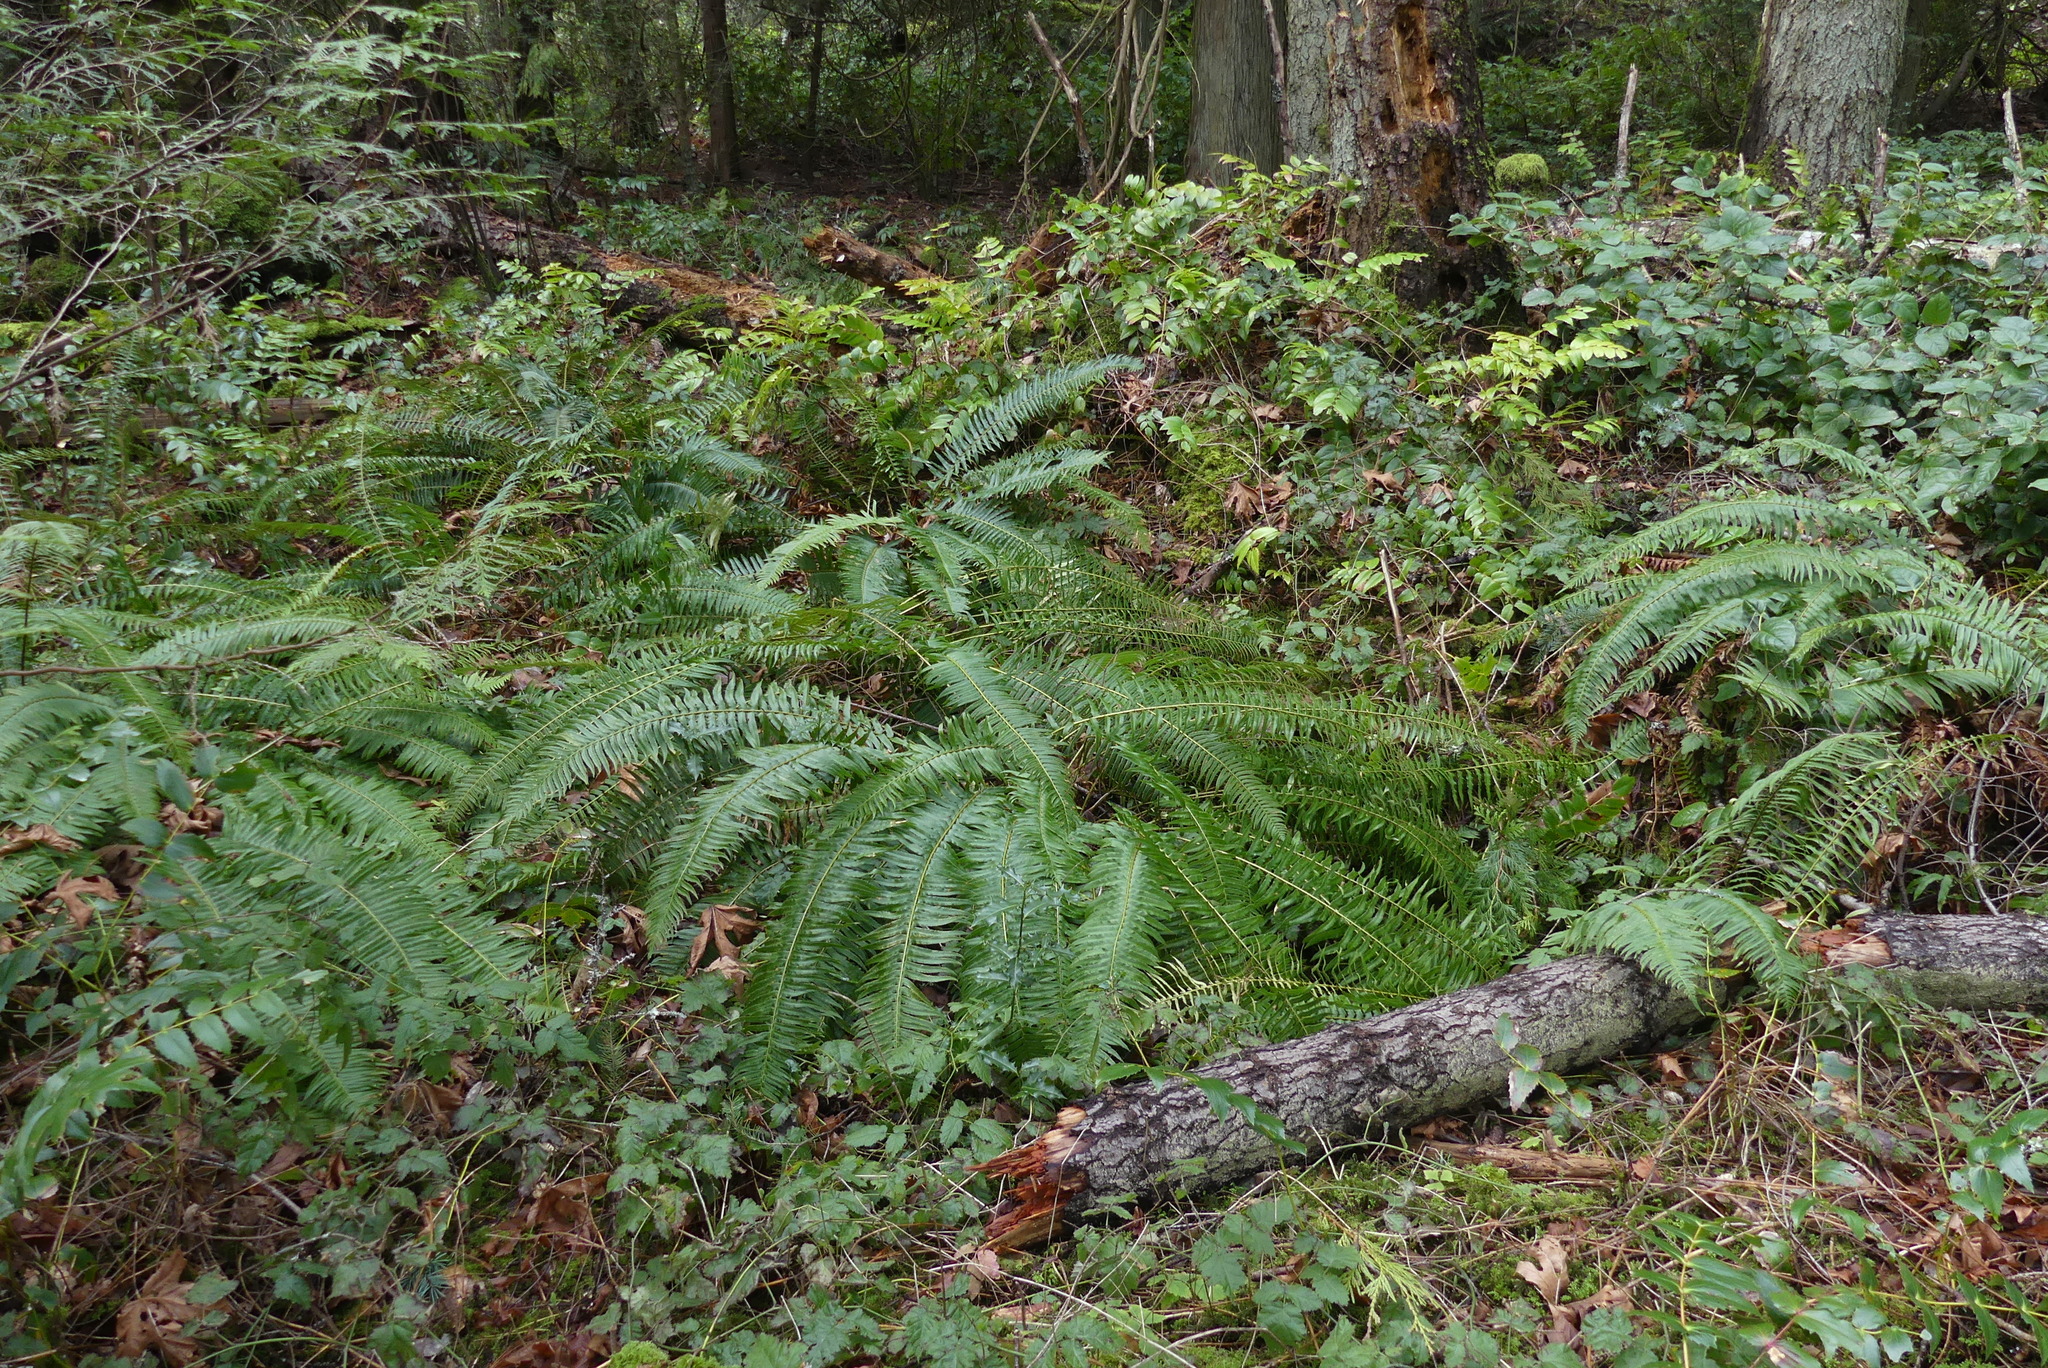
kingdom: Plantae
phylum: Tracheophyta
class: Polypodiopsida
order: Polypodiales
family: Dryopteridaceae
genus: Polystichum
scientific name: Polystichum munitum
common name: Western sword-fern
